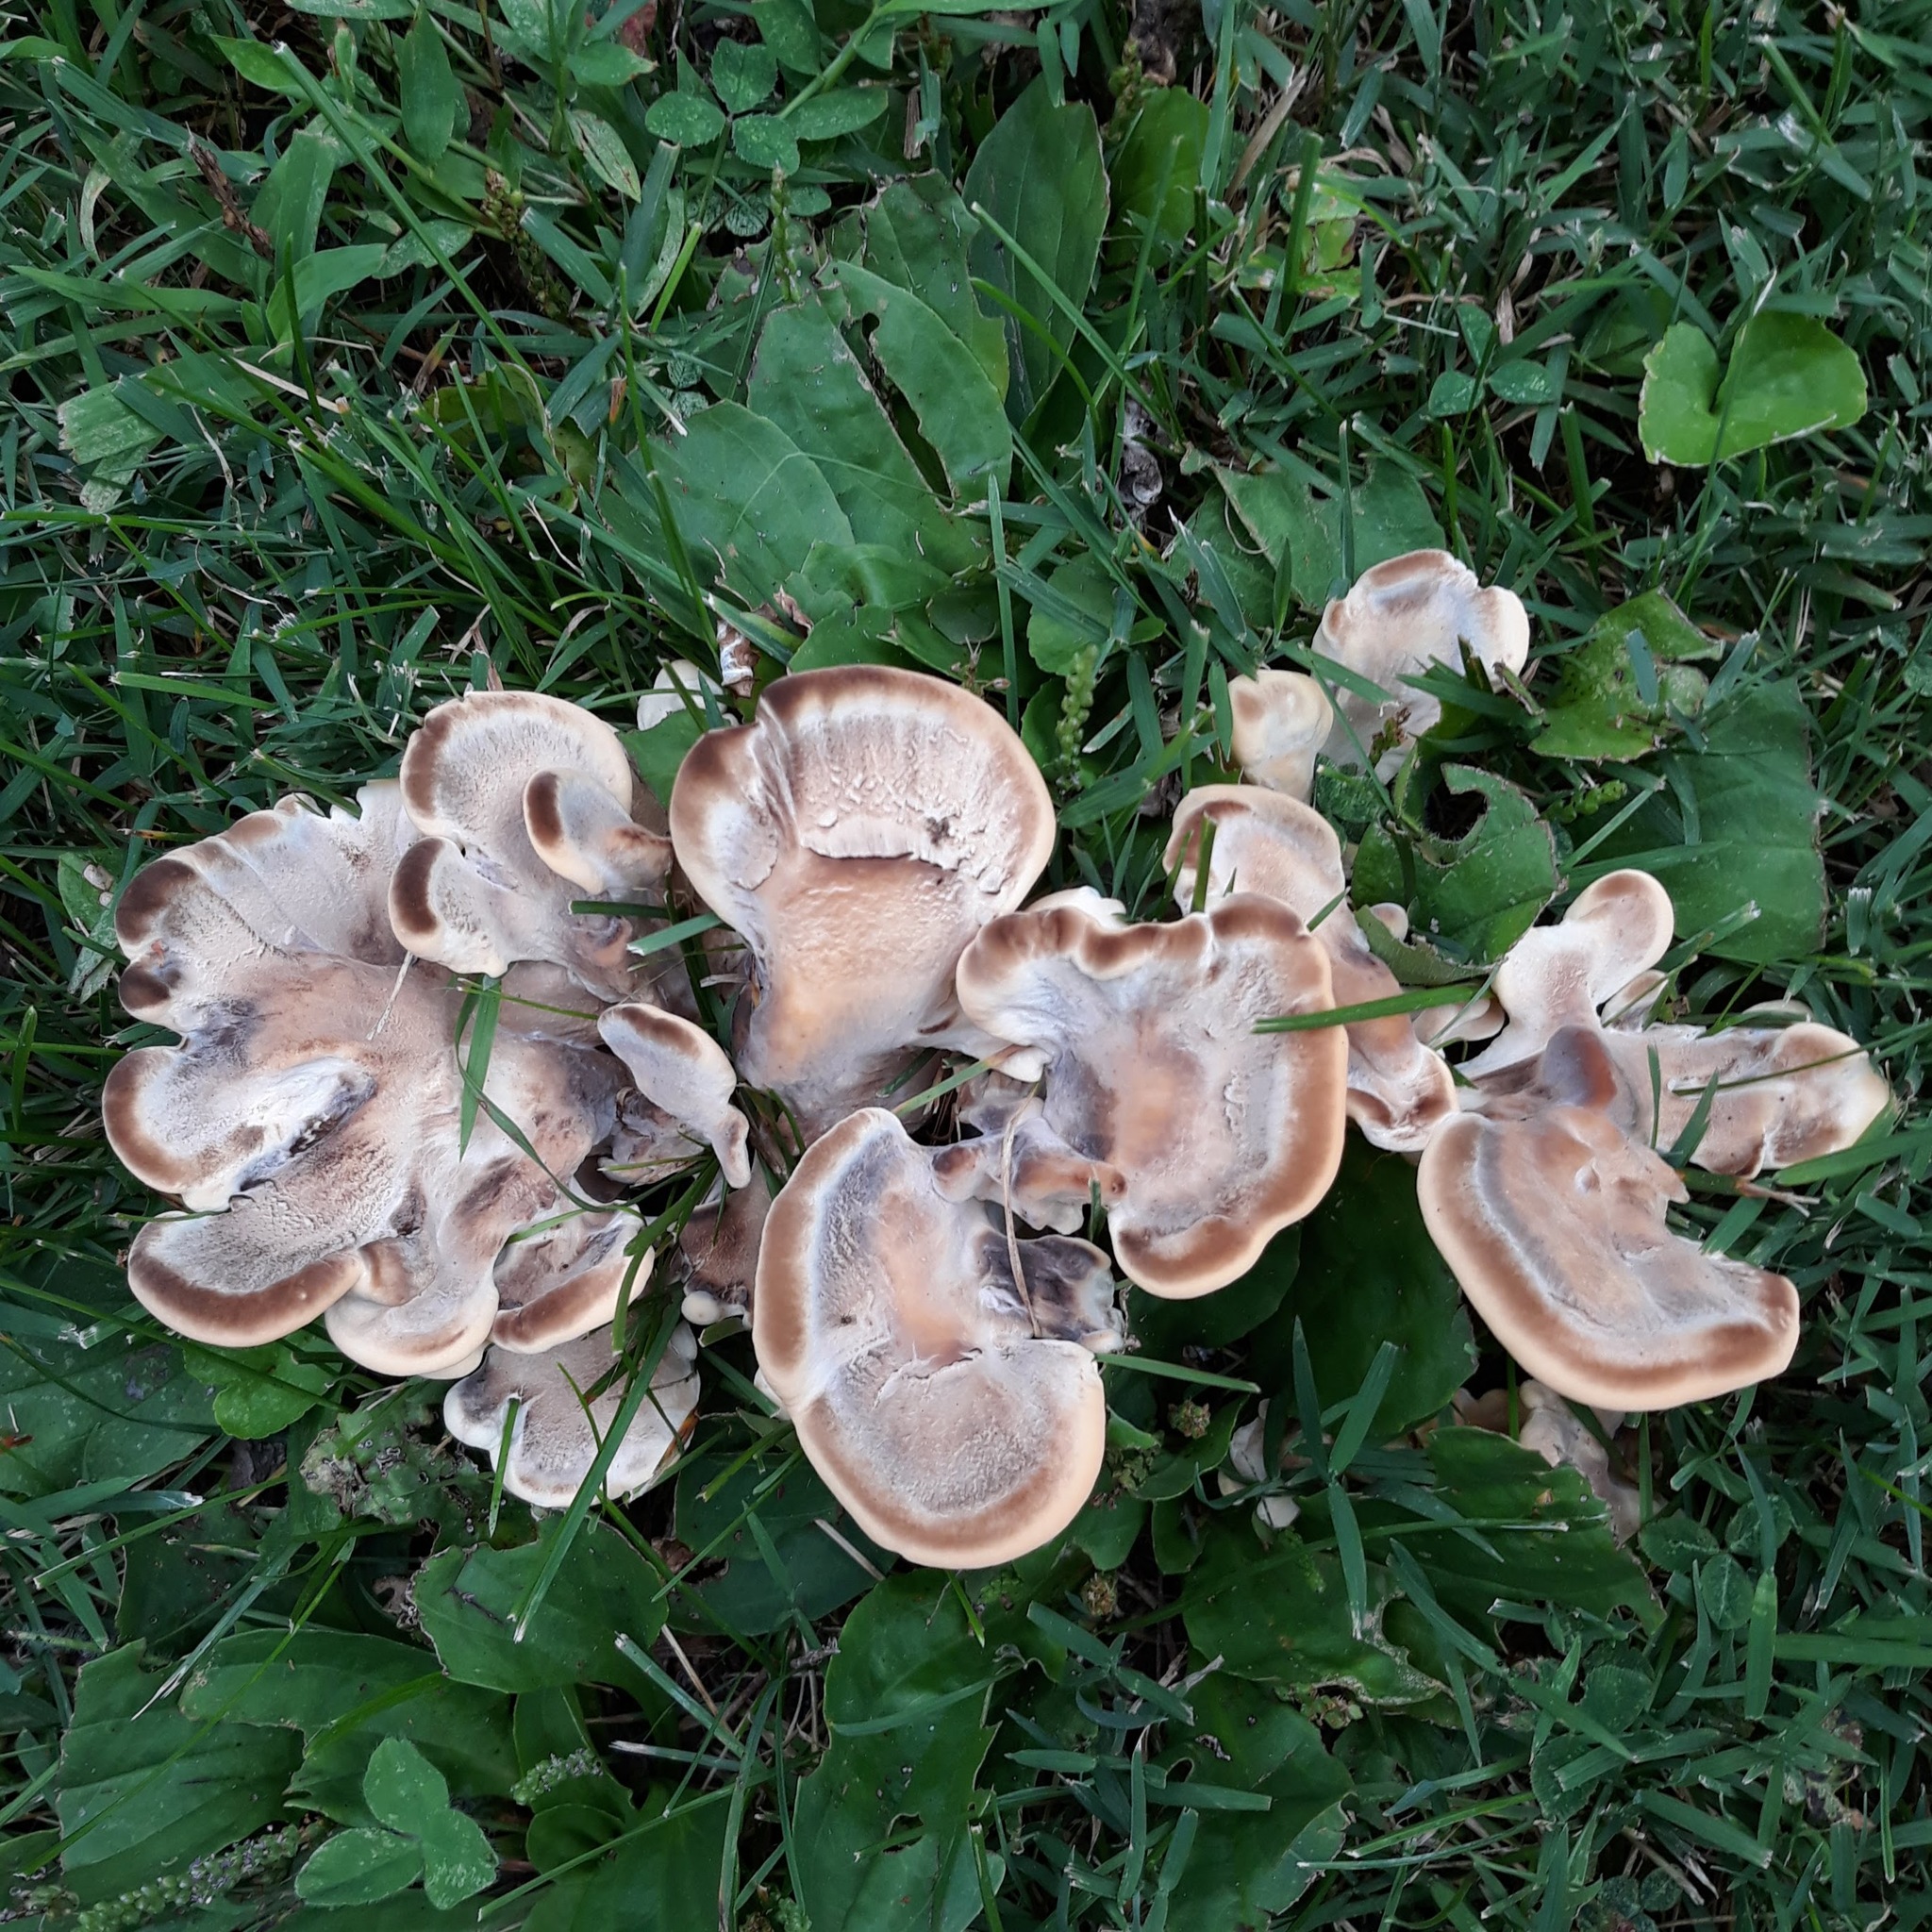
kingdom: Fungi
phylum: Basidiomycota
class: Agaricomycetes
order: Polyporales
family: Meripilaceae
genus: Meripilus
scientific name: Meripilus sumstinei
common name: Black-staining polypore
